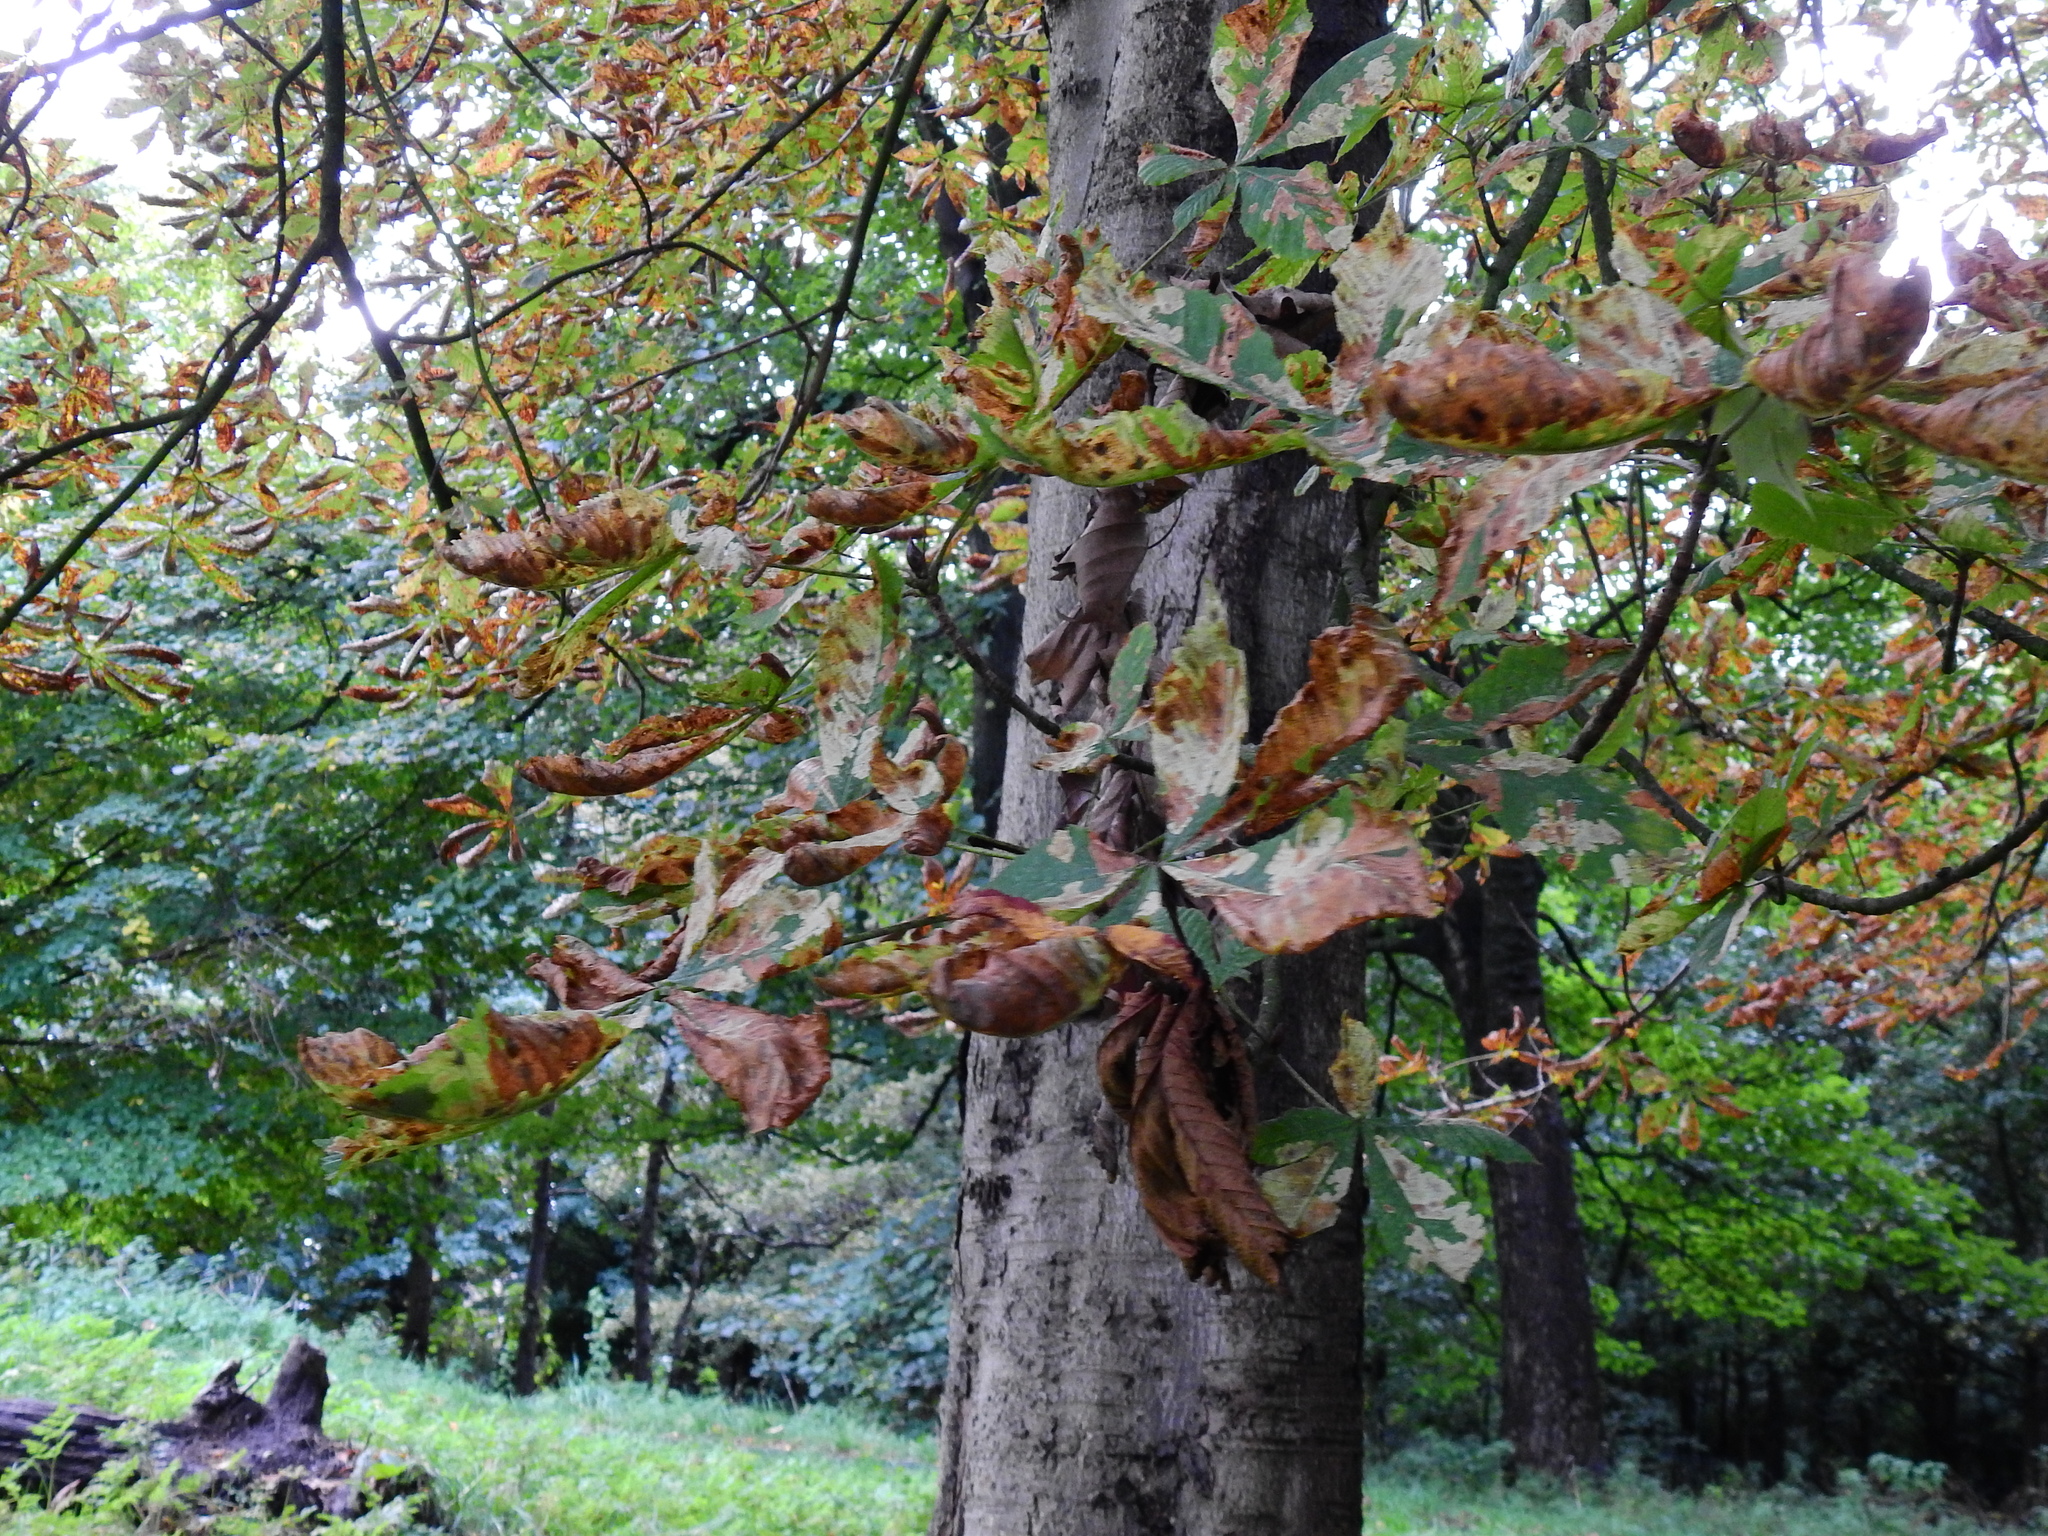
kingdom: Plantae
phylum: Tracheophyta
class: Magnoliopsida
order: Sapindales
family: Sapindaceae
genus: Aesculus
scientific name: Aesculus hippocastanum
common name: Horse-chestnut
